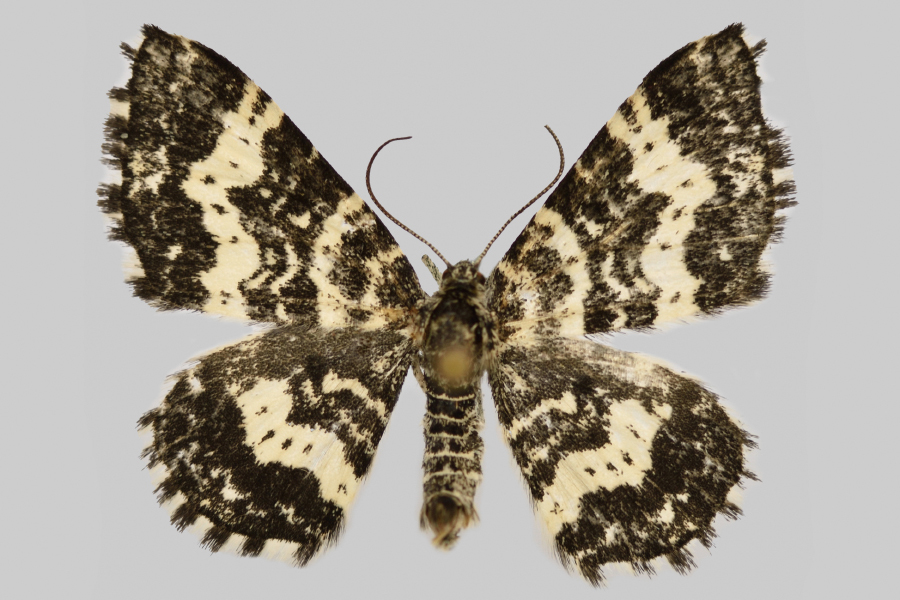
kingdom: Animalia
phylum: Arthropoda
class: Insecta
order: Lepidoptera
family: Geometridae
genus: Epirrhoe
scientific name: Epirrhoe hastulata
